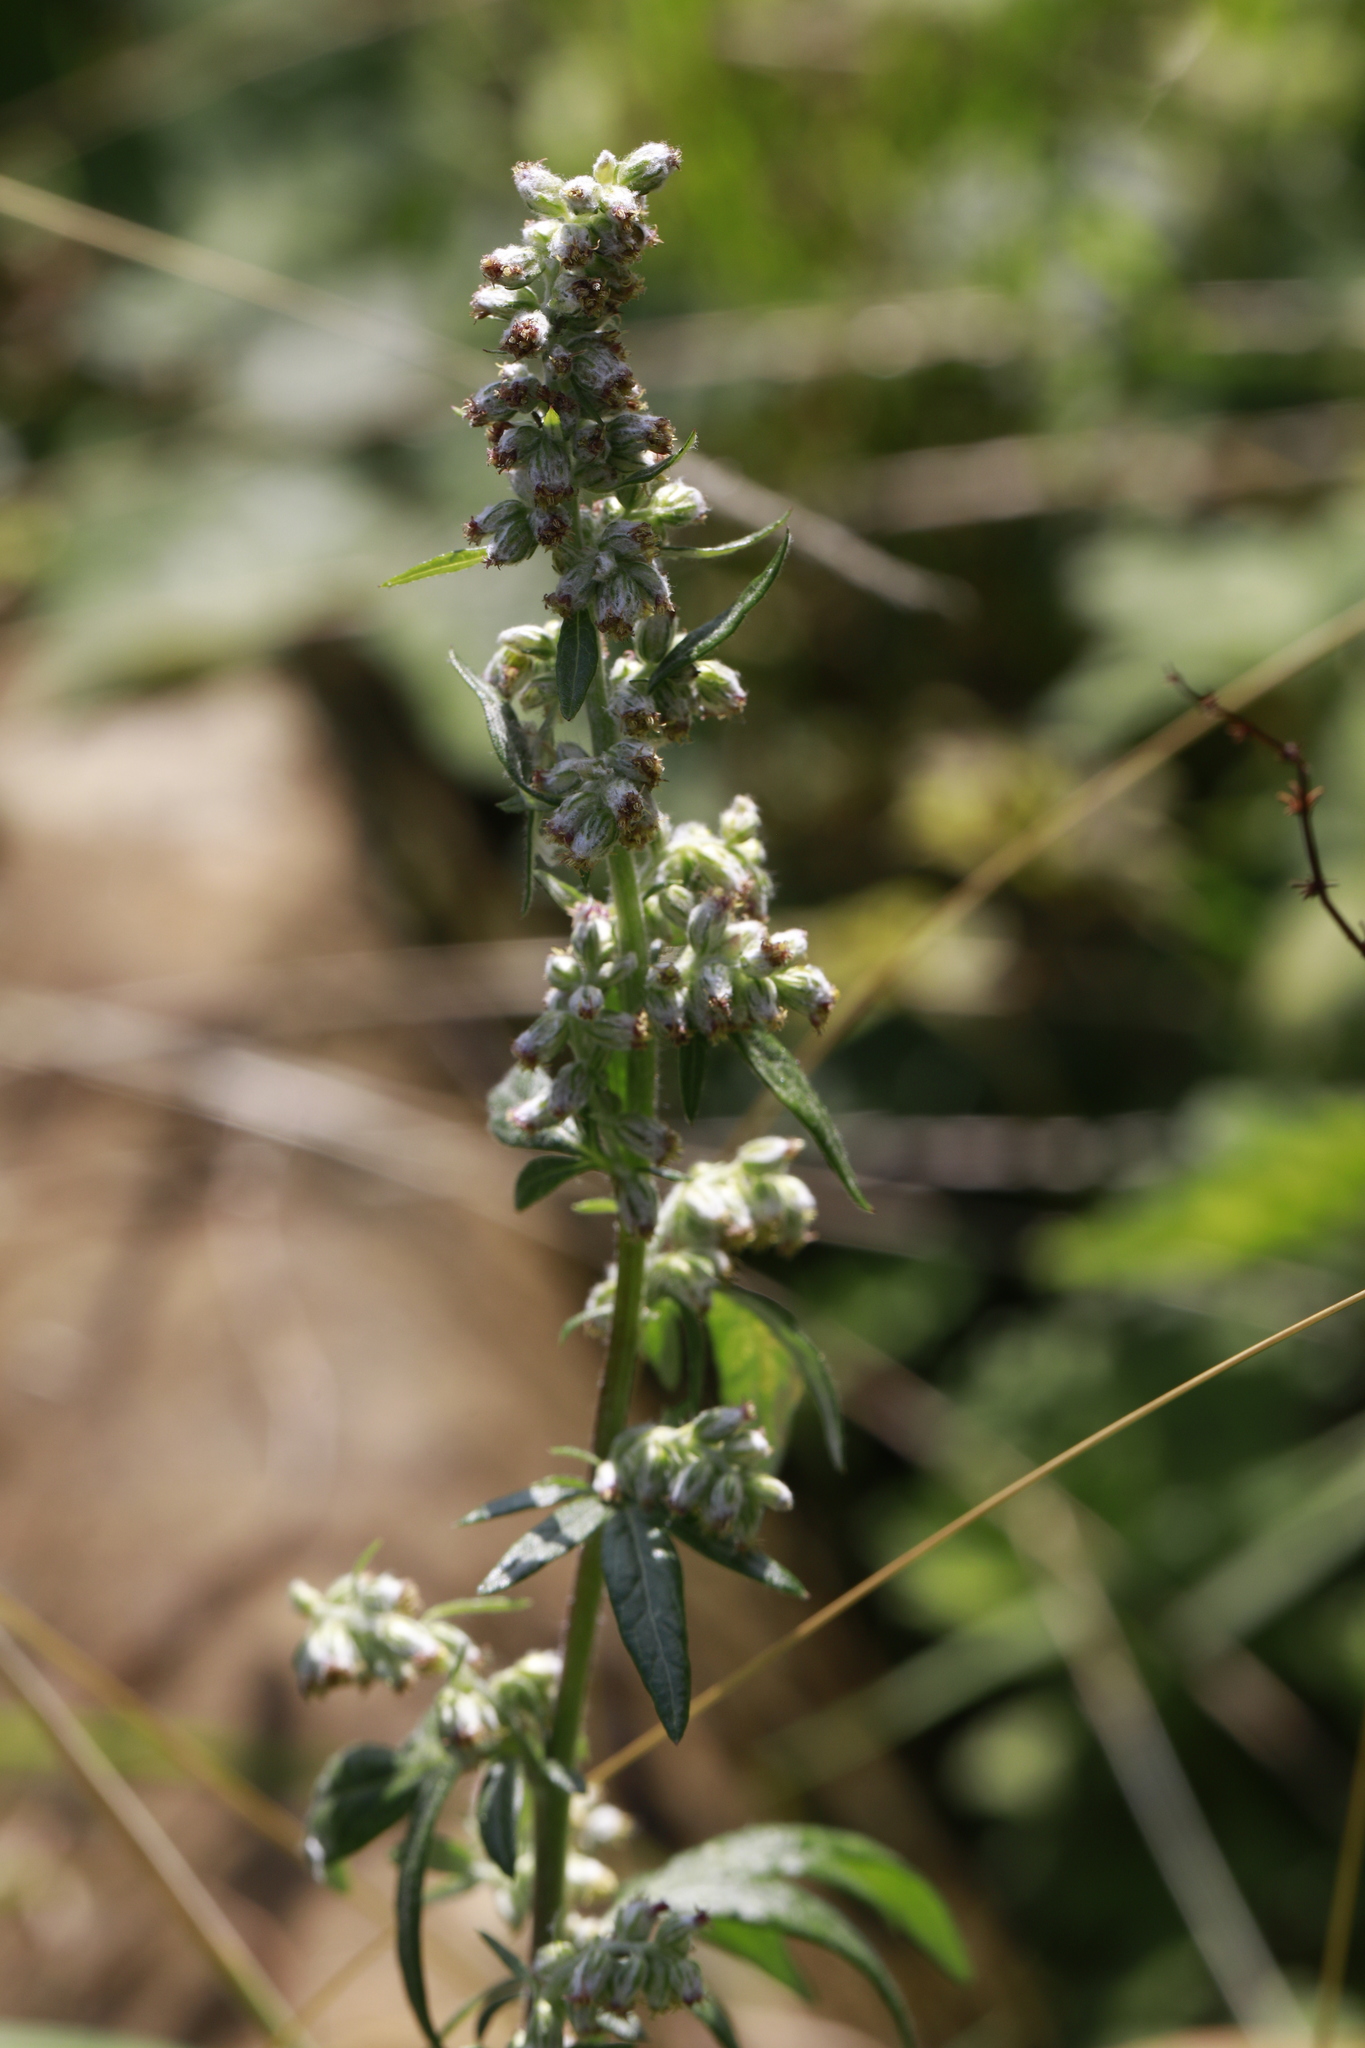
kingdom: Plantae
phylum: Tracheophyta
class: Magnoliopsida
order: Asterales
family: Asteraceae
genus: Artemisia
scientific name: Artemisia vulgaris
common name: Mugwort
